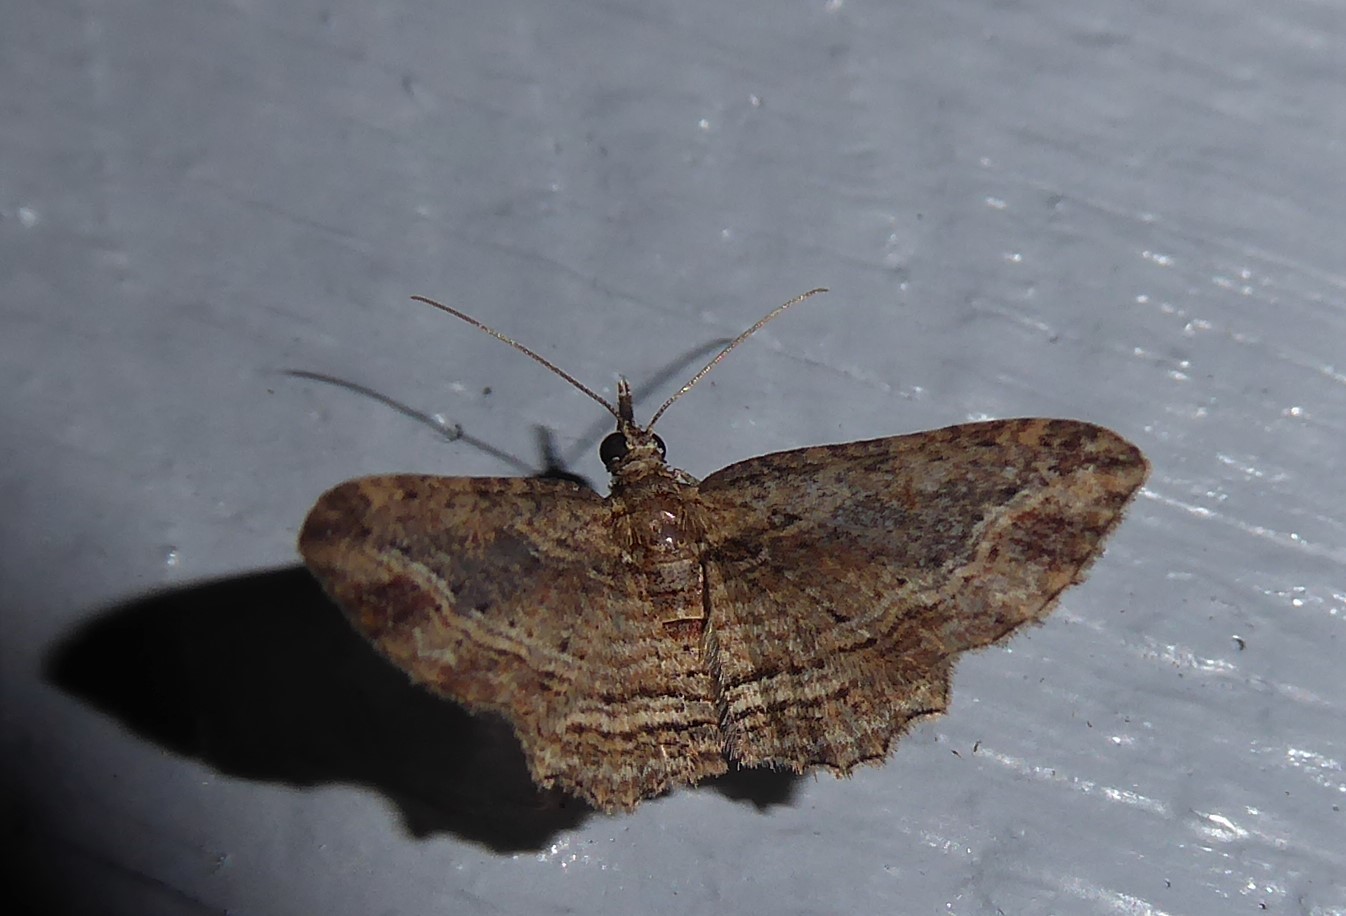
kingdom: Animalia
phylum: Arthropoda
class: Insecta
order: Lepidoptera
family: Geometridae
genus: Chloroclystis
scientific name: Chloroclystis filata
